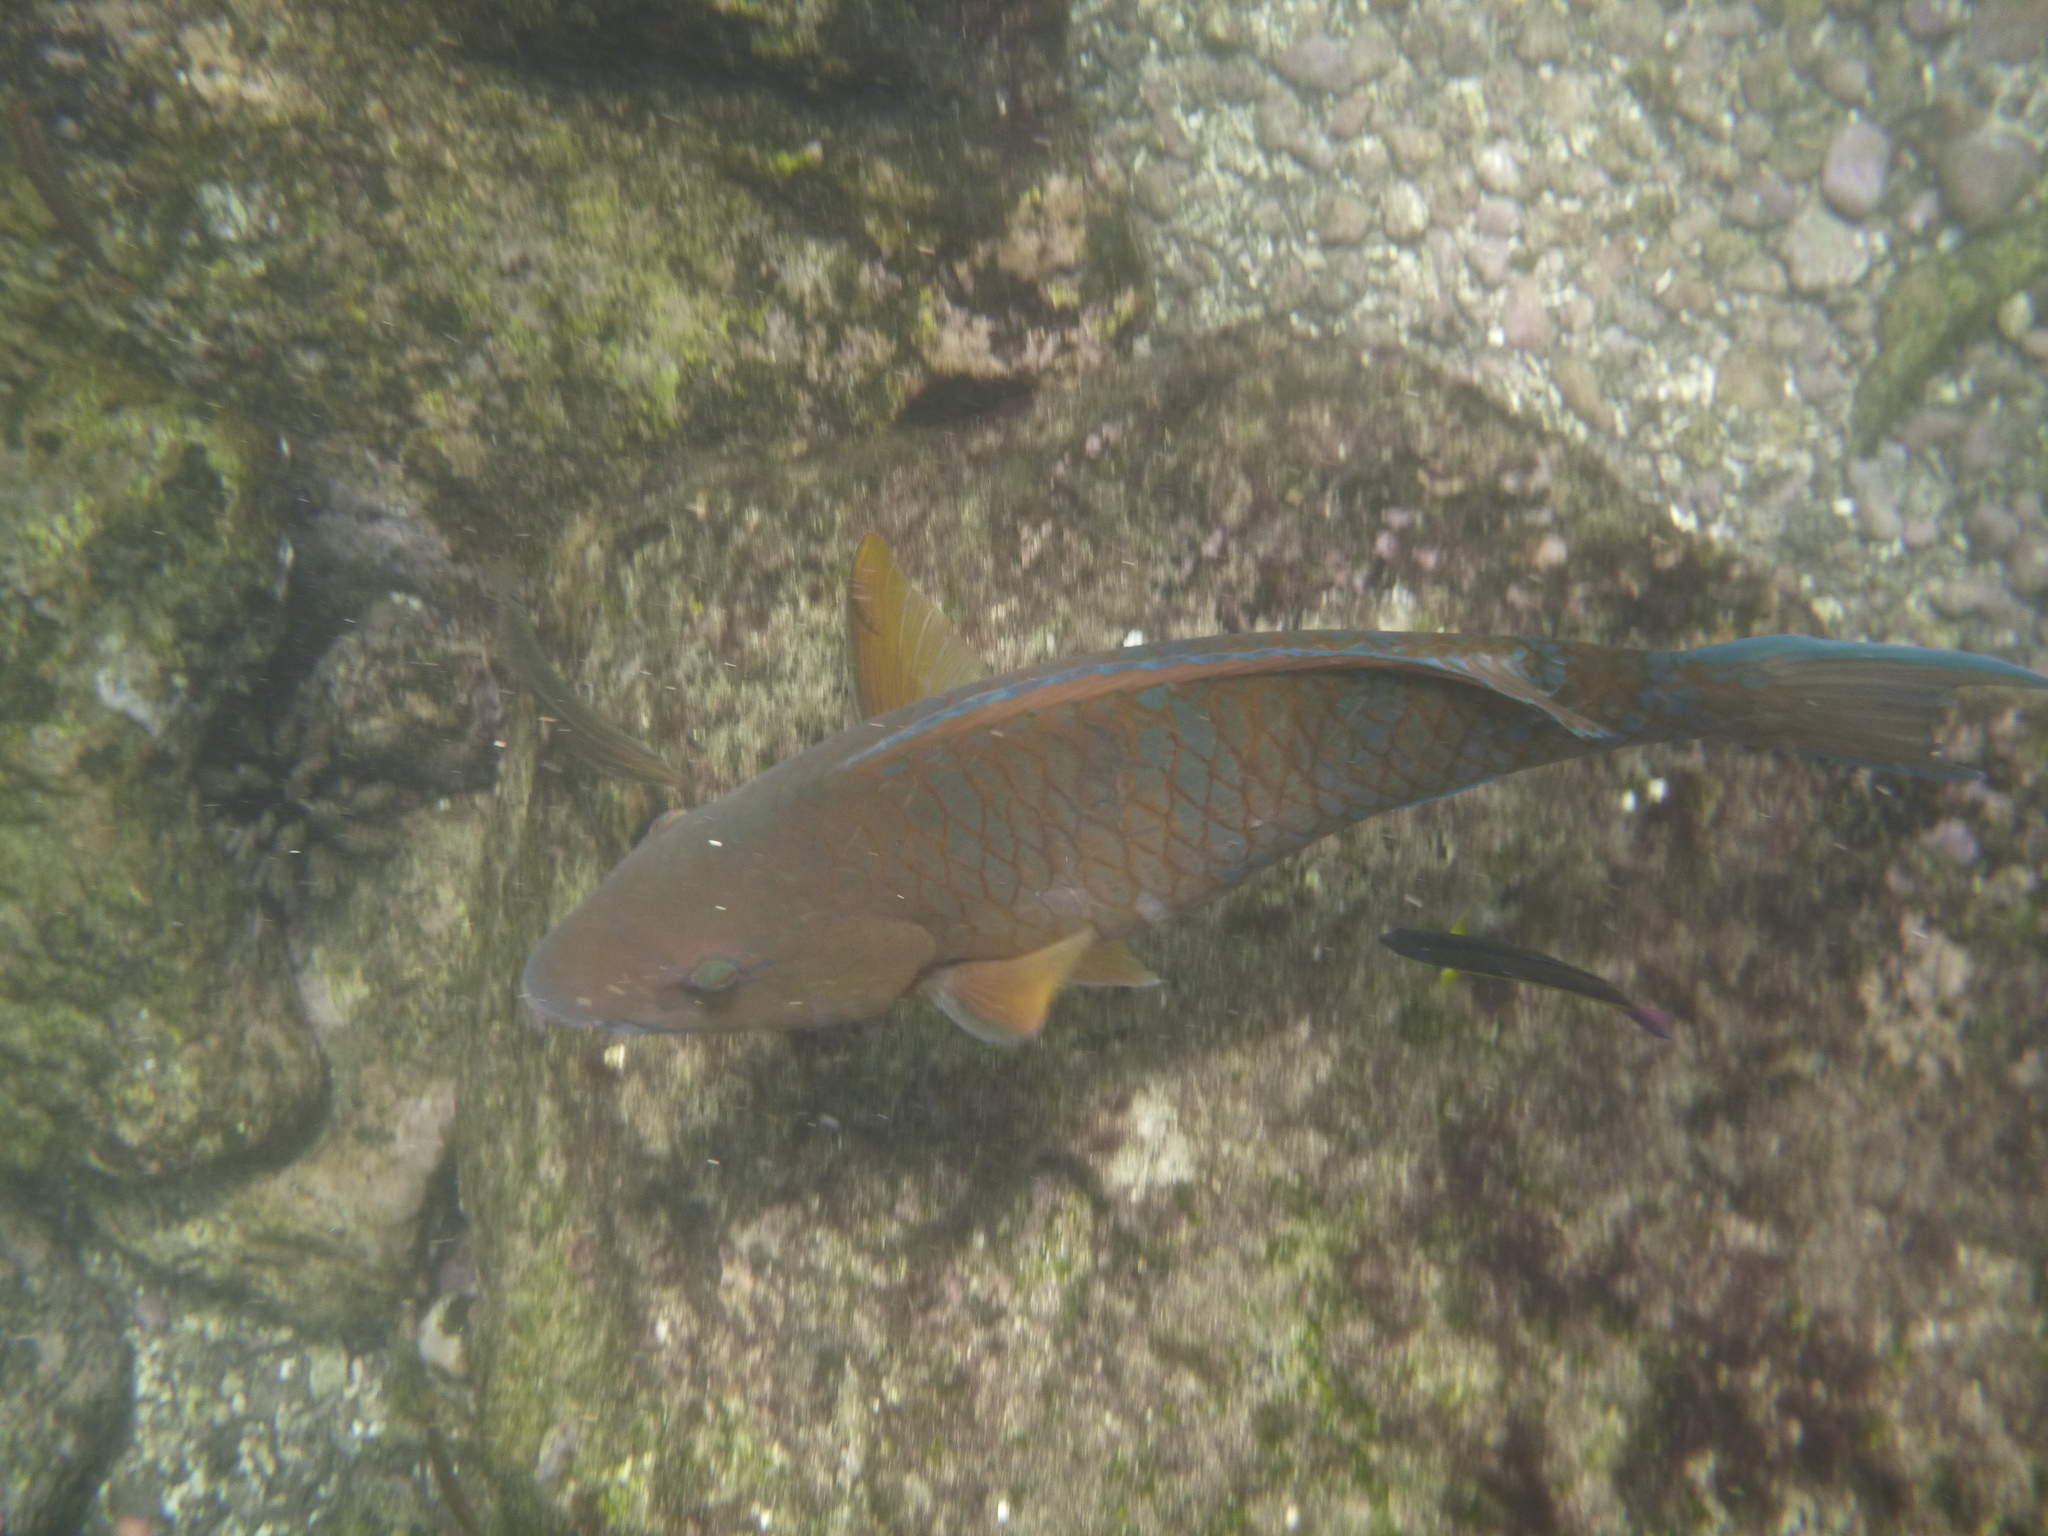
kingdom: Animalia
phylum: Chordata
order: Perciformes
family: Scaridae
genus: Scarus
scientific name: Scarus ghobban
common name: Blue-barred parrotfish
